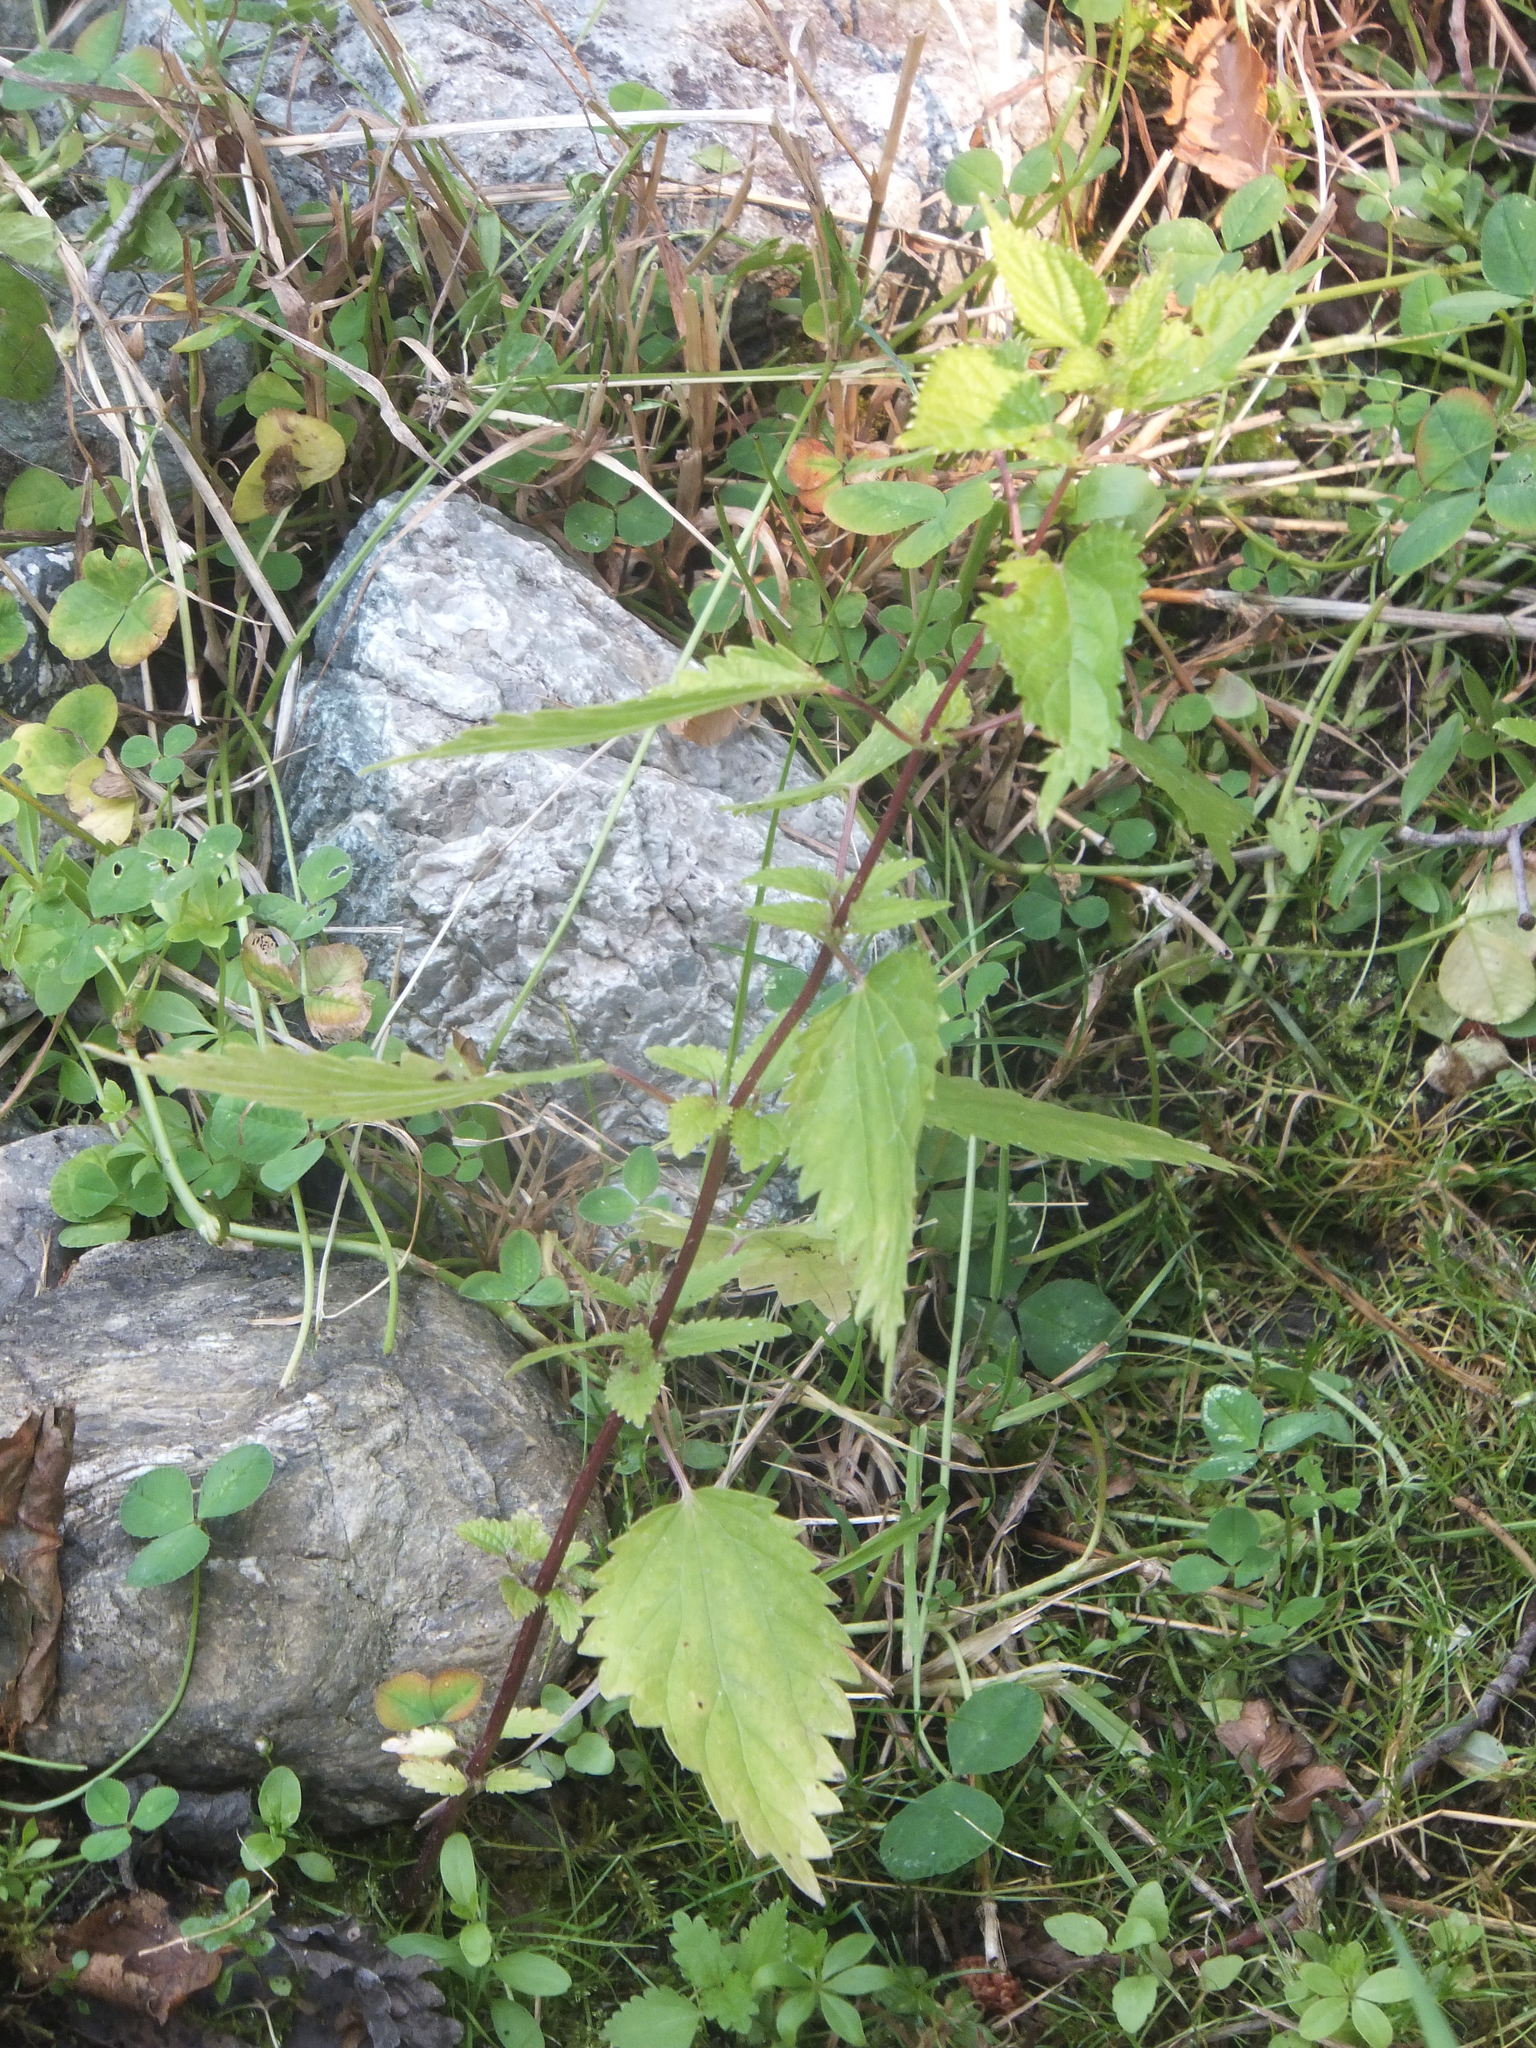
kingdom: Plantae
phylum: Tracheophyta
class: Magnoliopsida
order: Rosales
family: Urticaceae
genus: Urtica
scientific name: Urtica gracilis
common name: Slender stinging nettle
